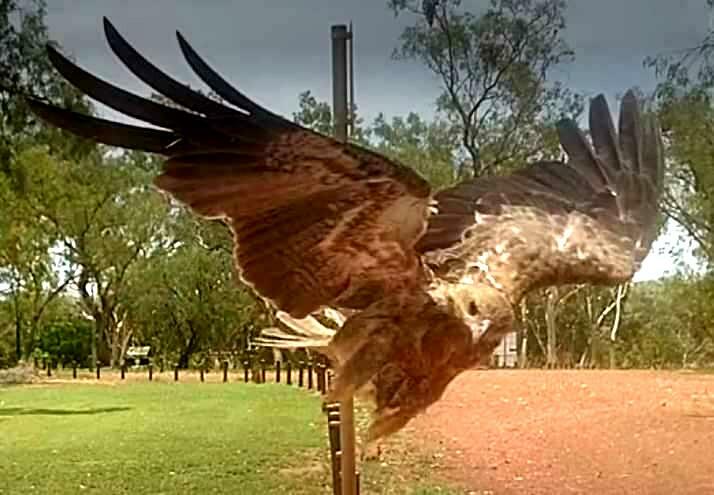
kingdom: Animalia
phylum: Chordata
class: Aves
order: Accipitriformes
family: Accipitridae
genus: Haliastur
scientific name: Haliastur sphenurus
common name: Whistling kite
